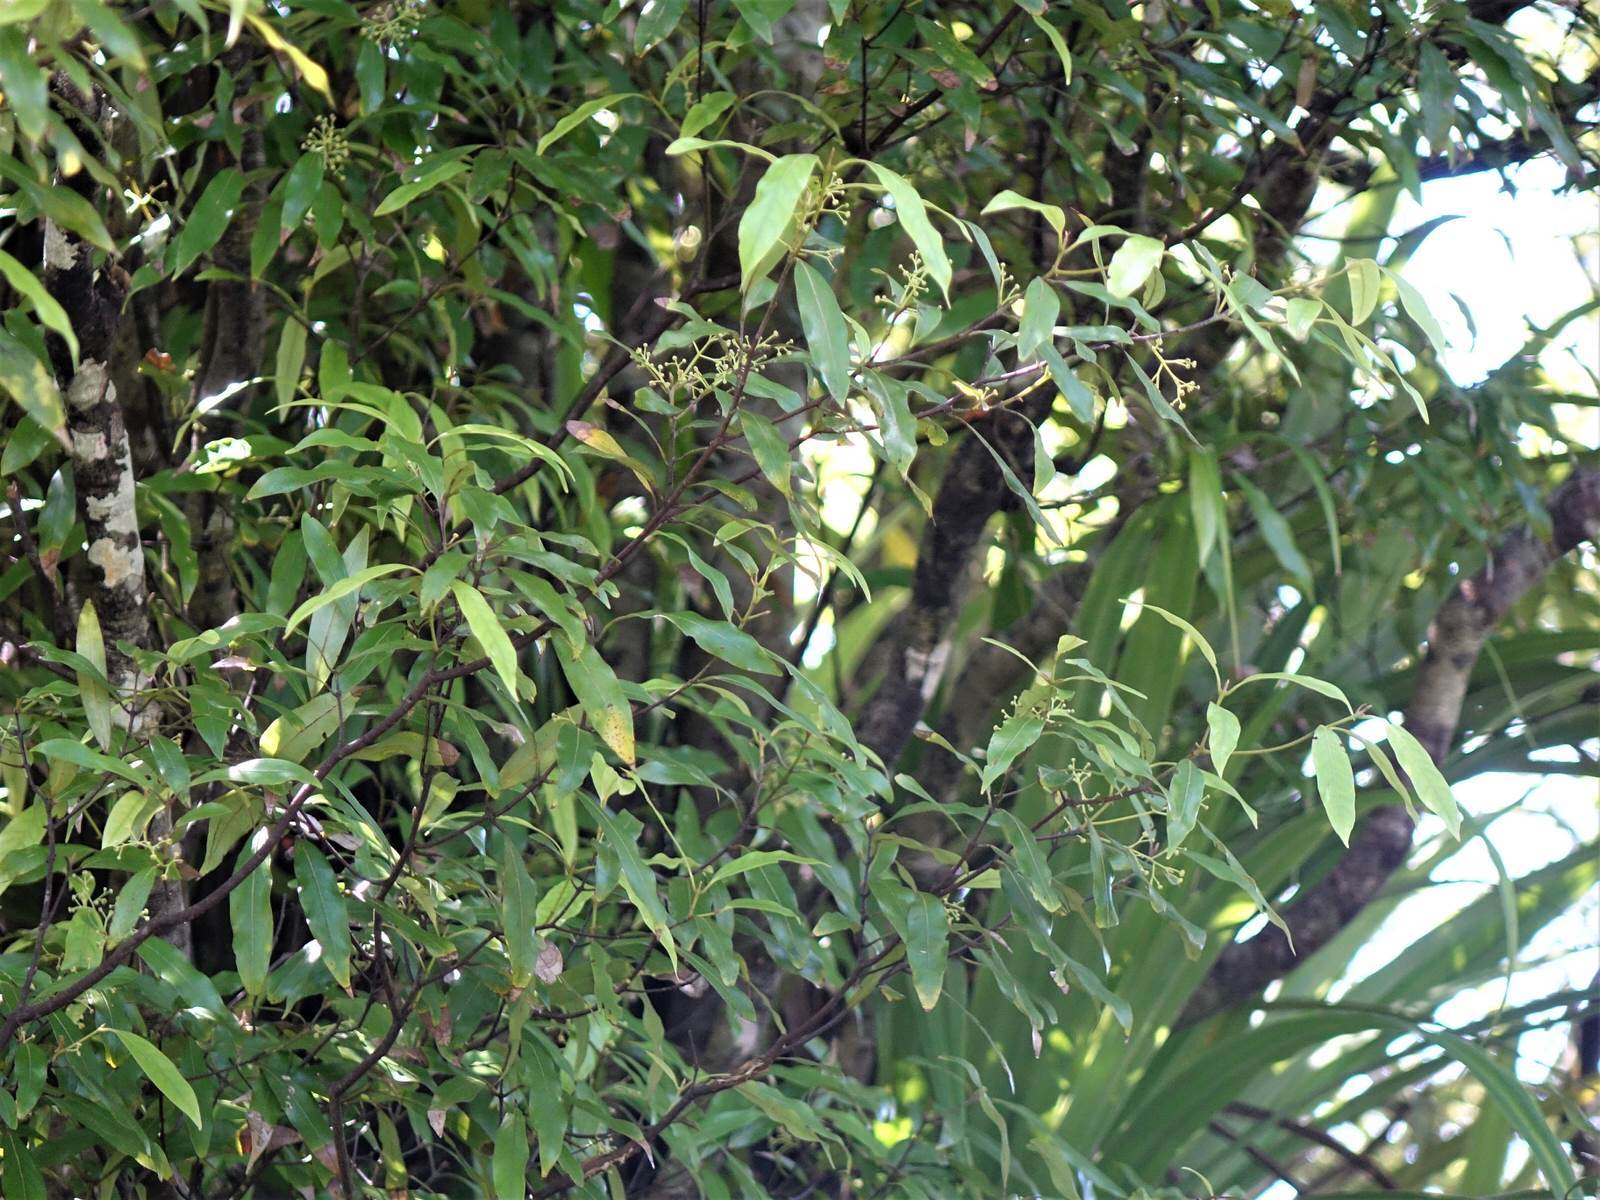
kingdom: Plantae
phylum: Tracheophyta
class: Magnoliopsida
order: Laurales
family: Lauraceae
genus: Beilschmiedia
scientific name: Beilschmiedia tawa
